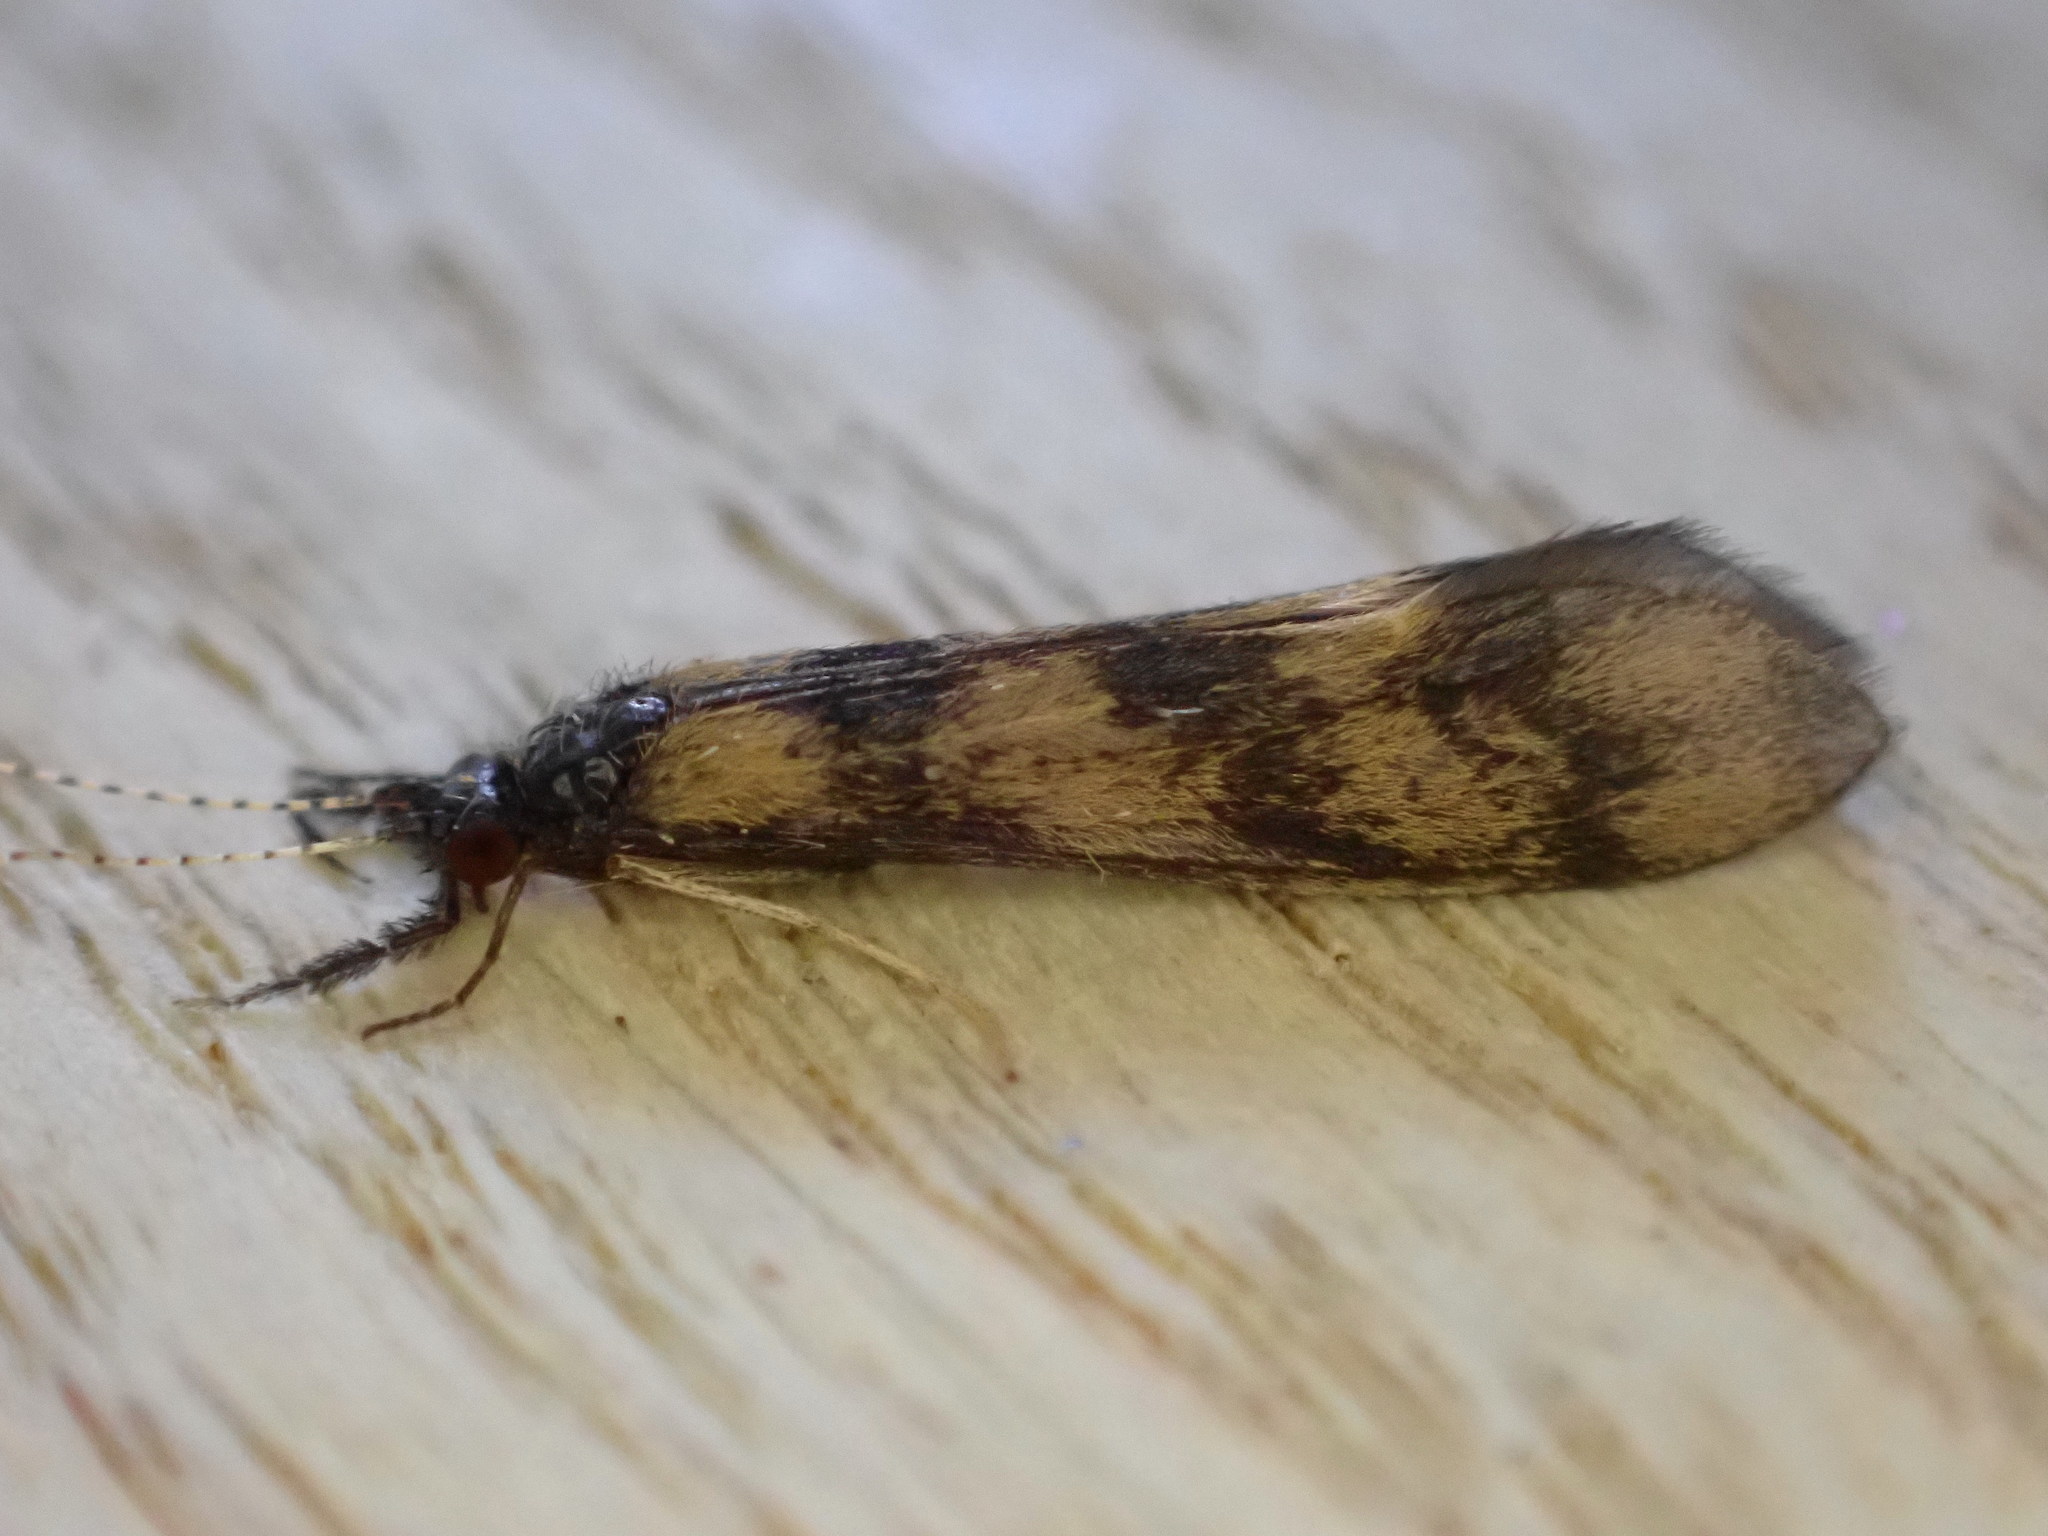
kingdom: Animalia
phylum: Arthropoda
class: Insecta
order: Trichoptera
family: Leptoceridae
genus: Mystacides
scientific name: Mystacides longicornis
